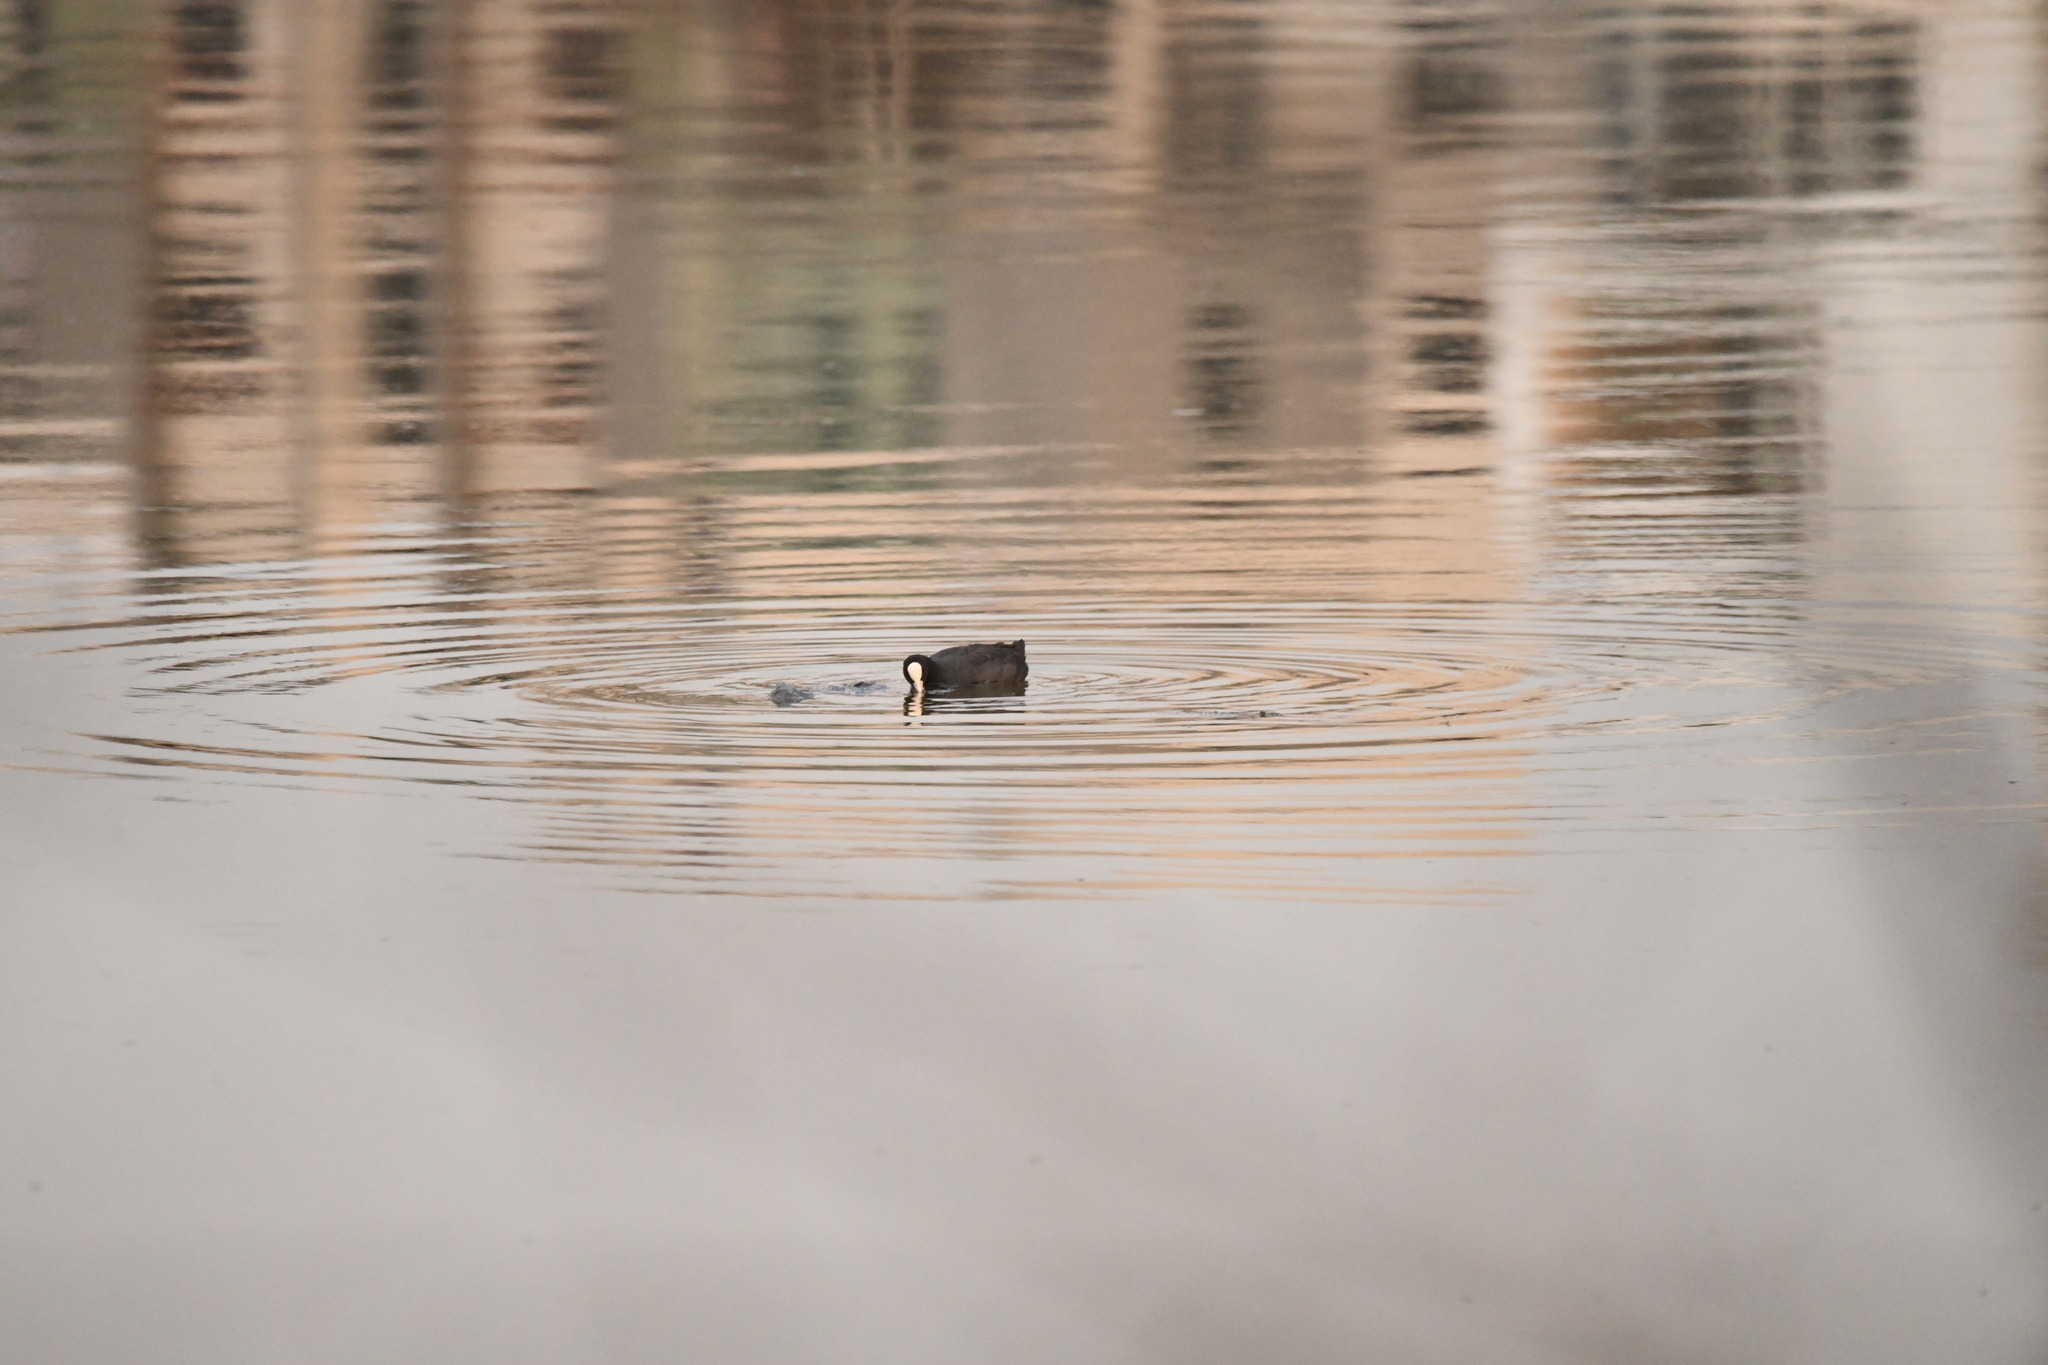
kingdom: Animalia
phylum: Chordata
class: Aves
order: Gruiformes
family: Rallidae
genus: Fulica
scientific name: Fulica atra
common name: Eurasian coot
